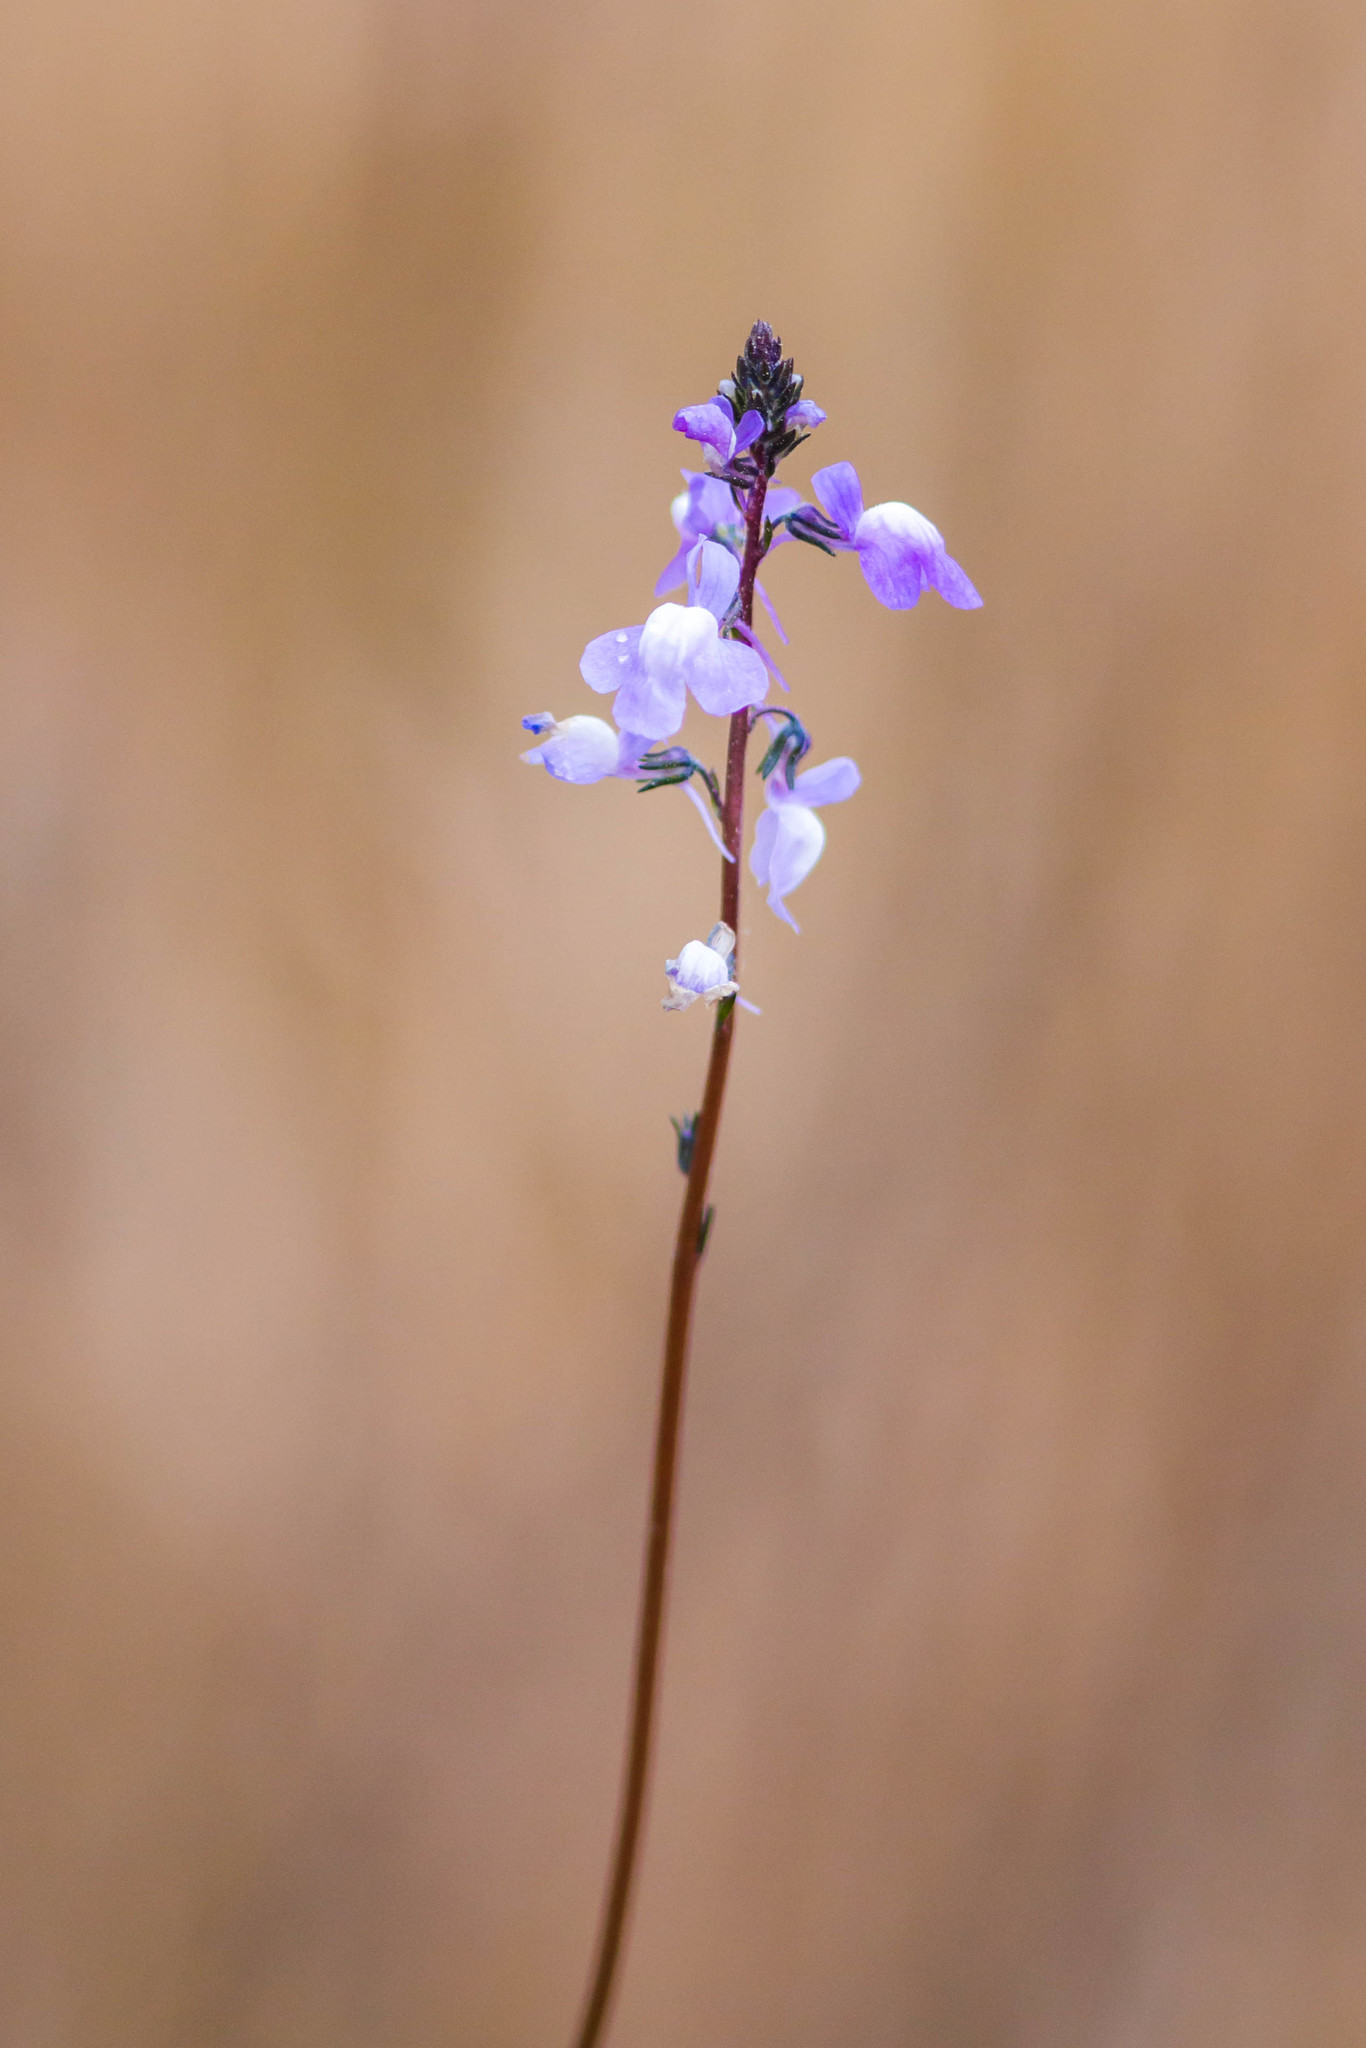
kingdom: Plantae
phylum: Tracheophyta
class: Magnoliopsida
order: Lamiales
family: Plantaginaceae
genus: Nuttallanthus
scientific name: Nuttallanthus canadensis
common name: Blue toadflax
